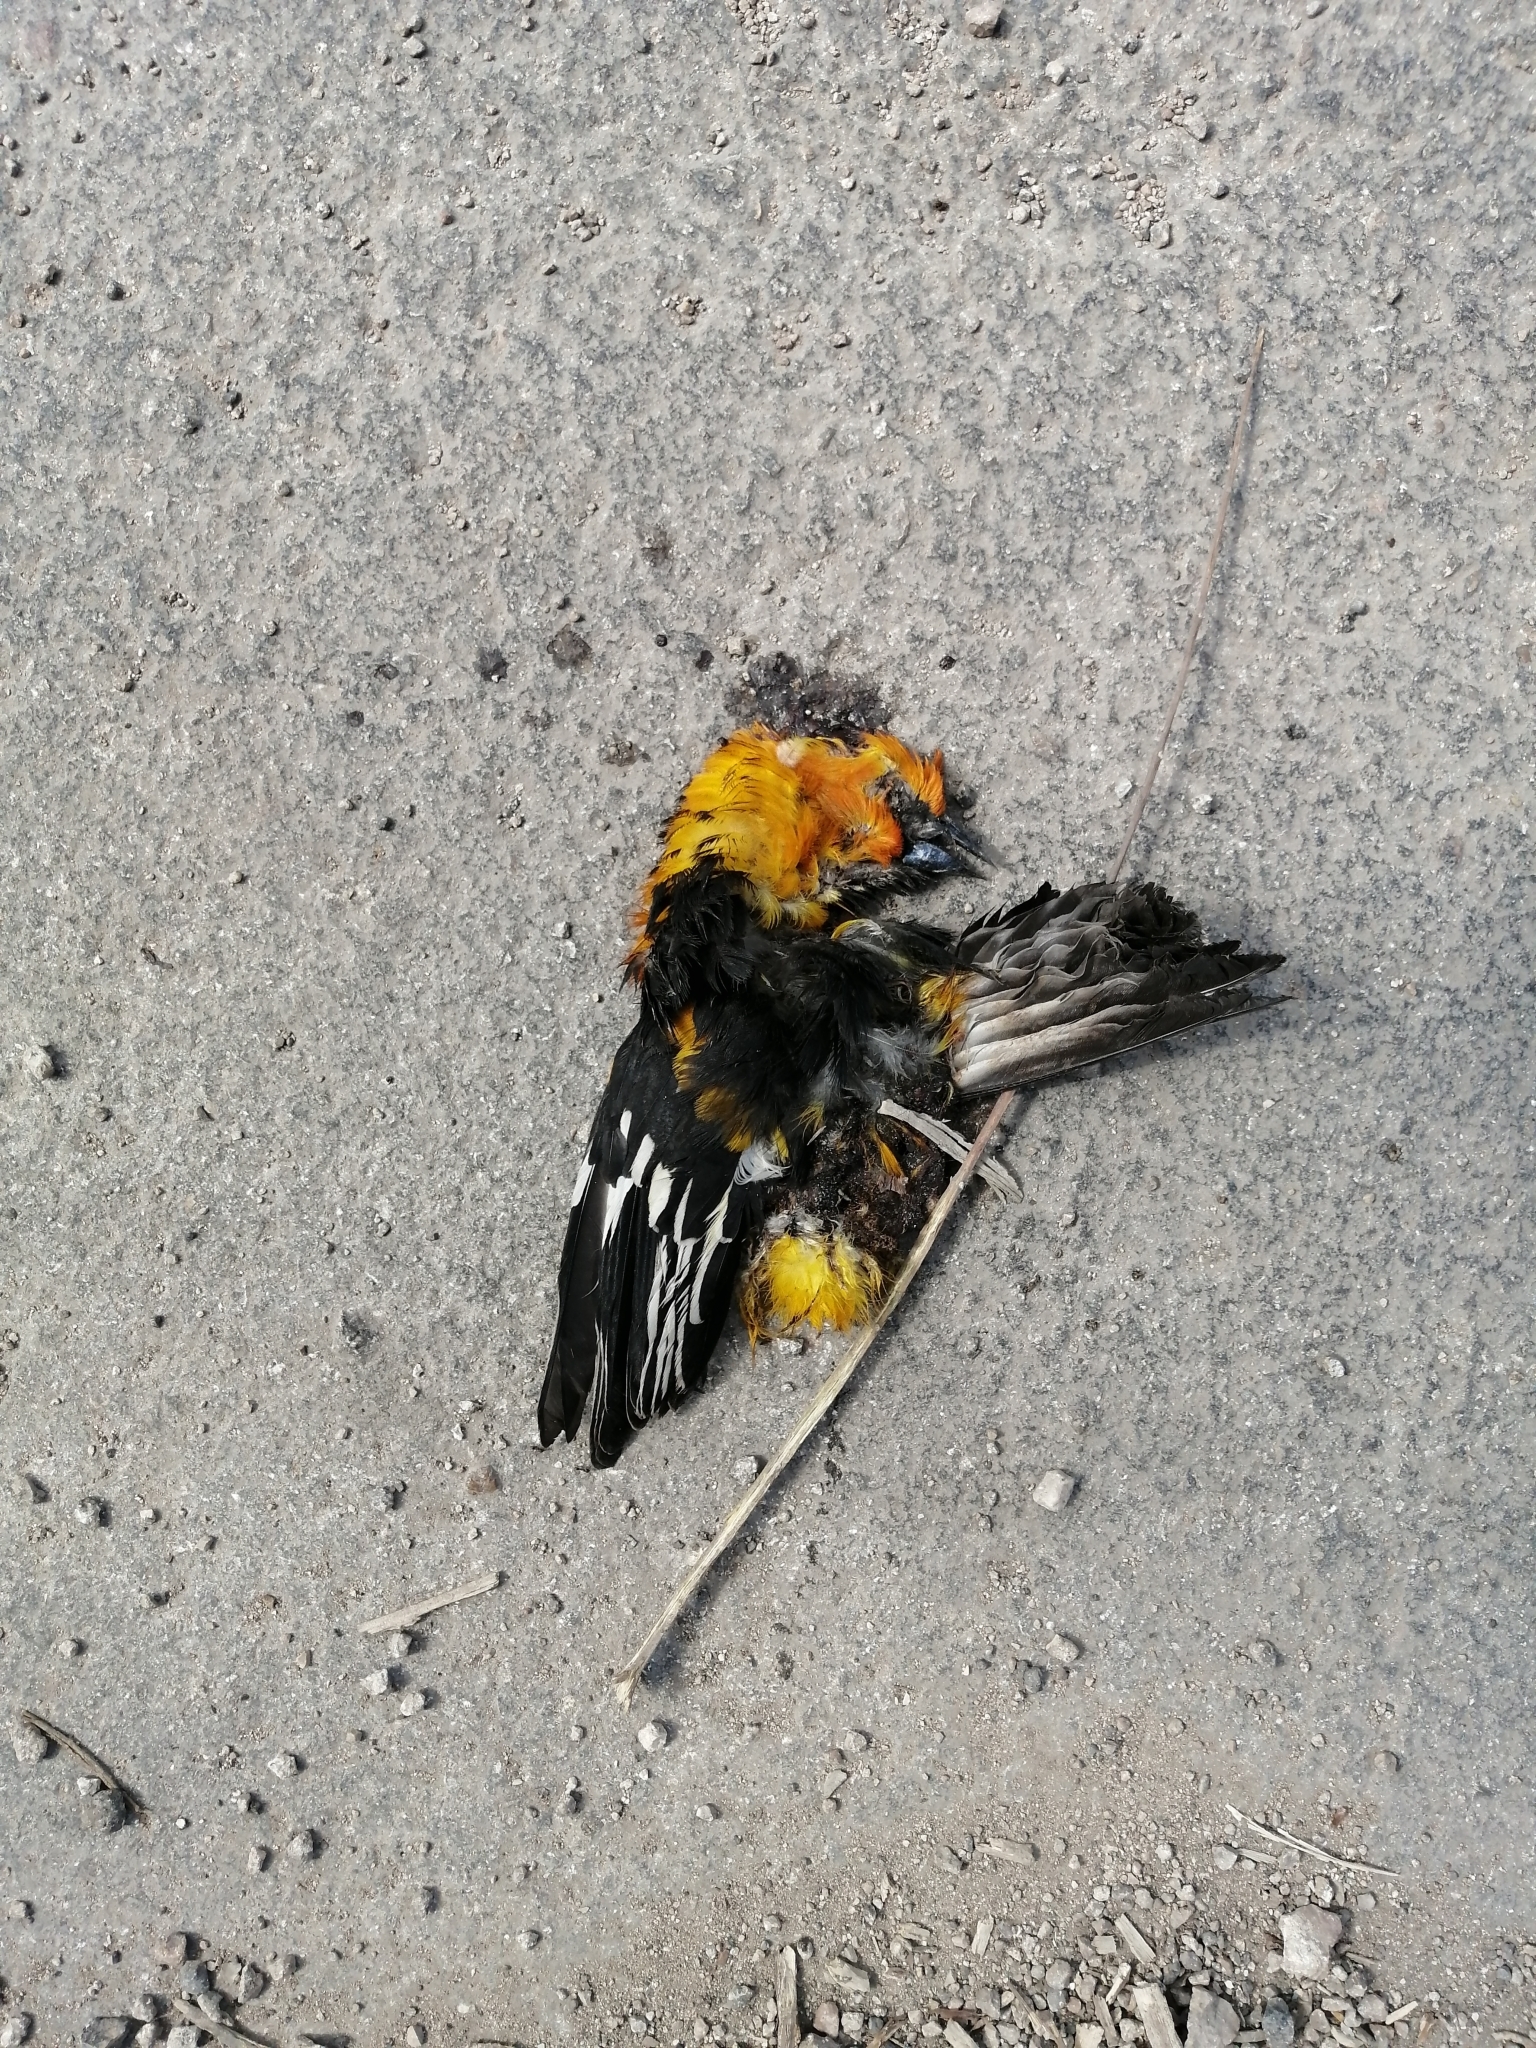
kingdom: Animalia
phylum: Chordata
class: Aves
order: Passeriformes
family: Icteridae
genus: Icterus
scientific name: Icterus gularis
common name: Altamira oriole
